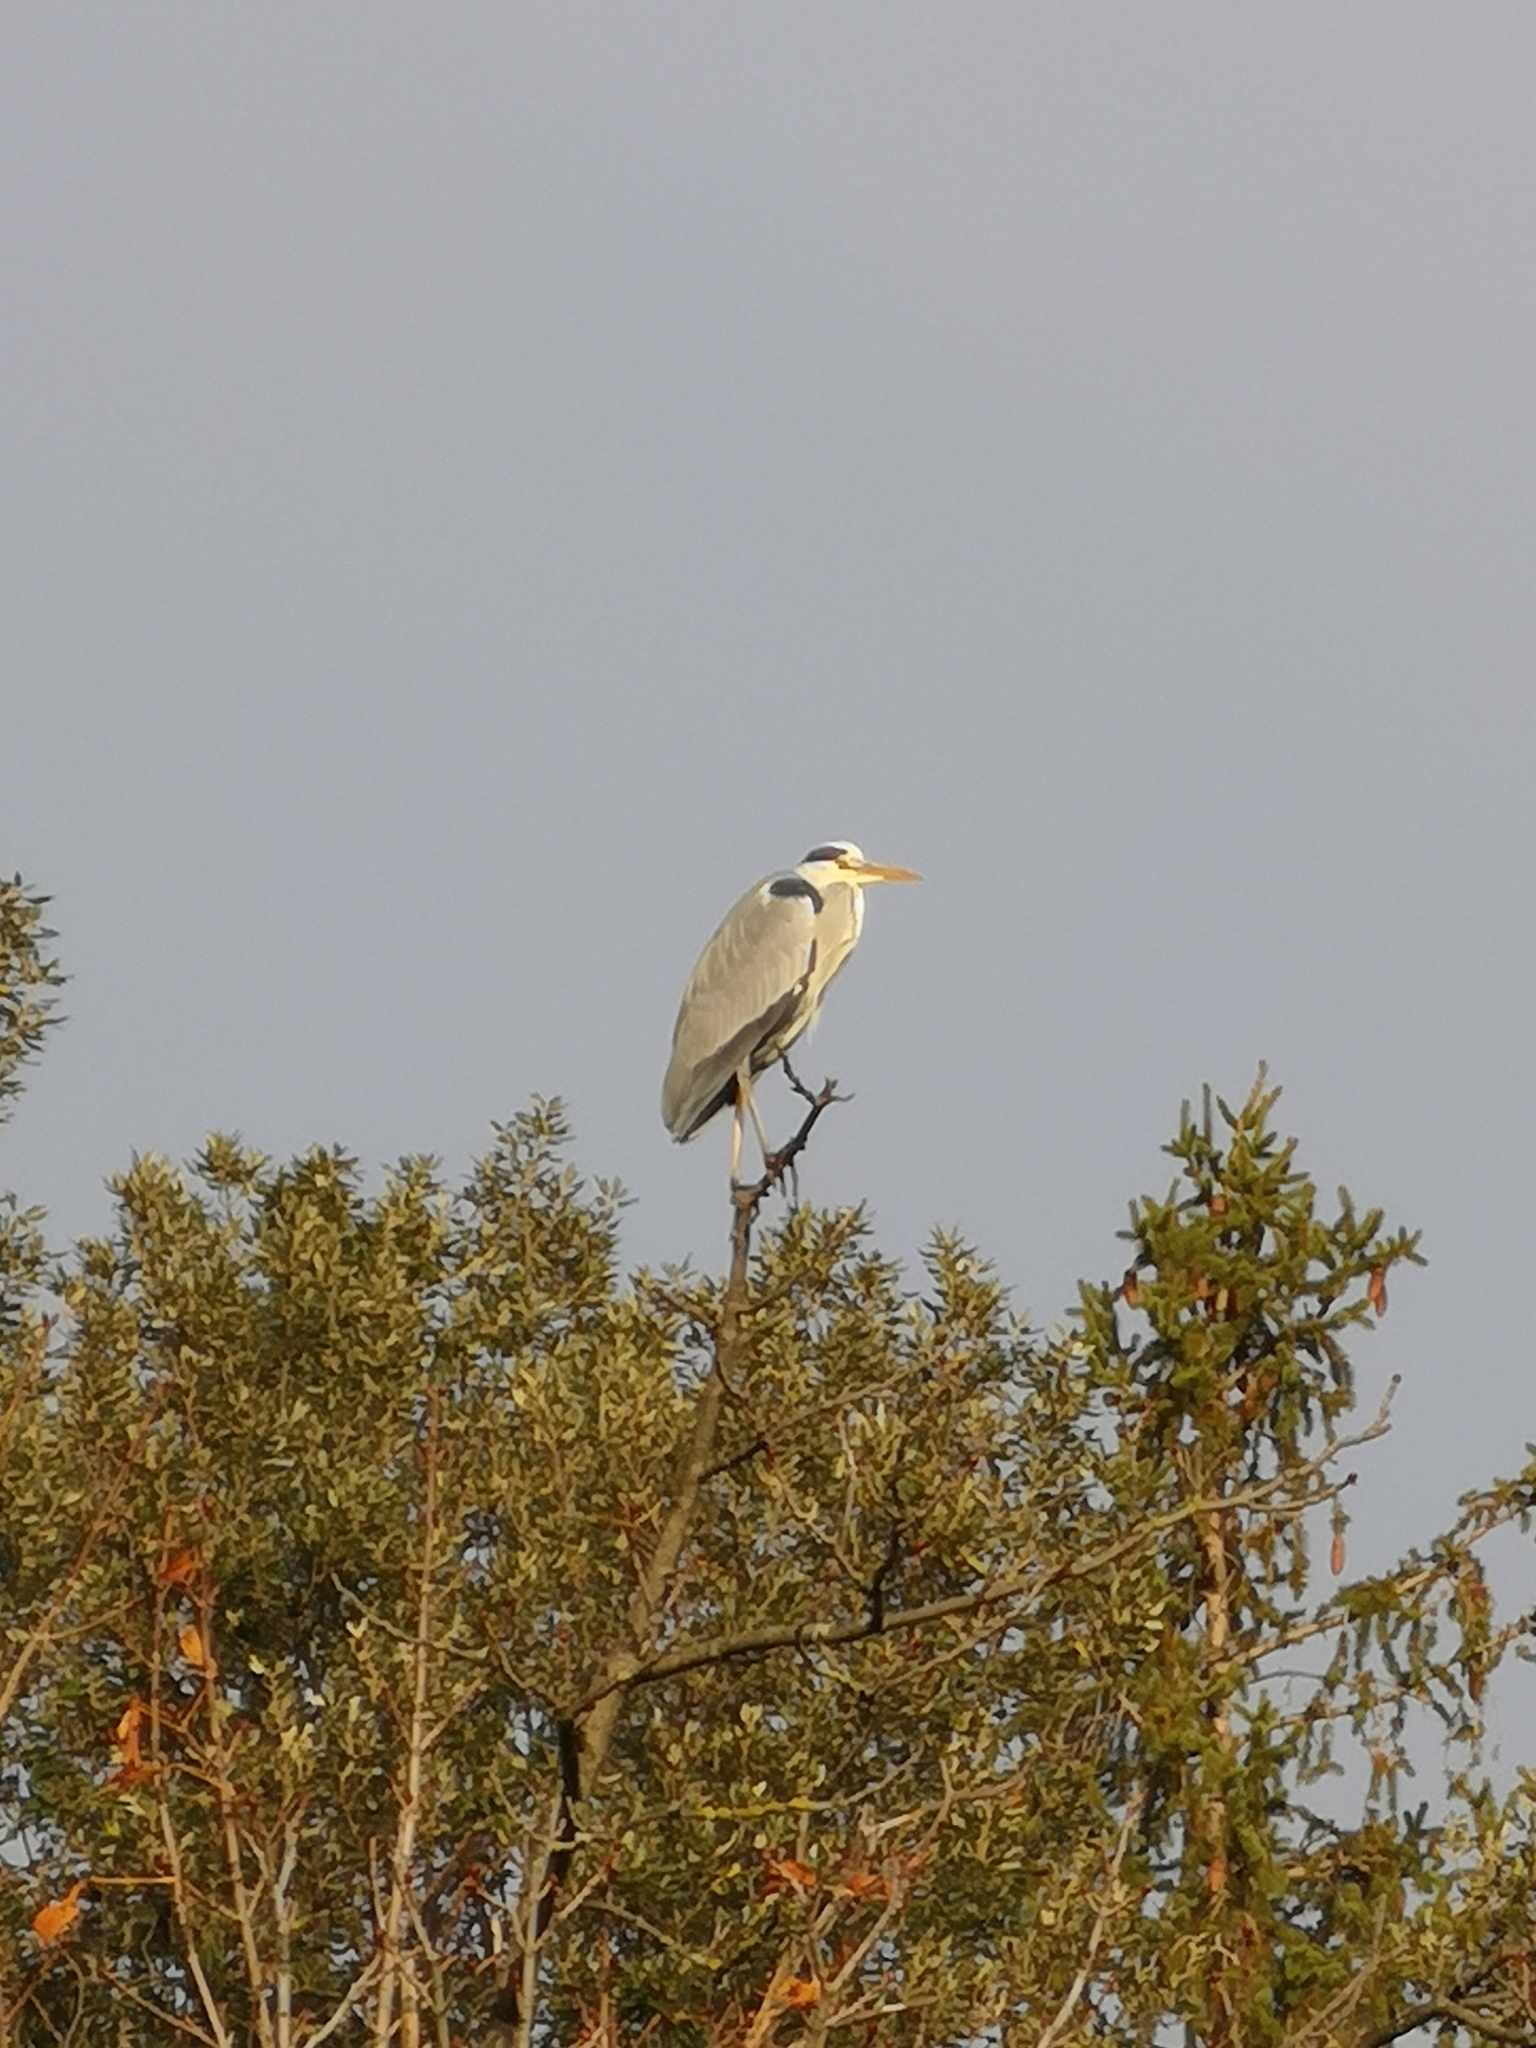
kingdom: Animalia
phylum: Chordata
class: Aves
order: Pelecaniformes
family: Ardeidae
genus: Ardea
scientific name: Ardea cinerea
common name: Grey heron
